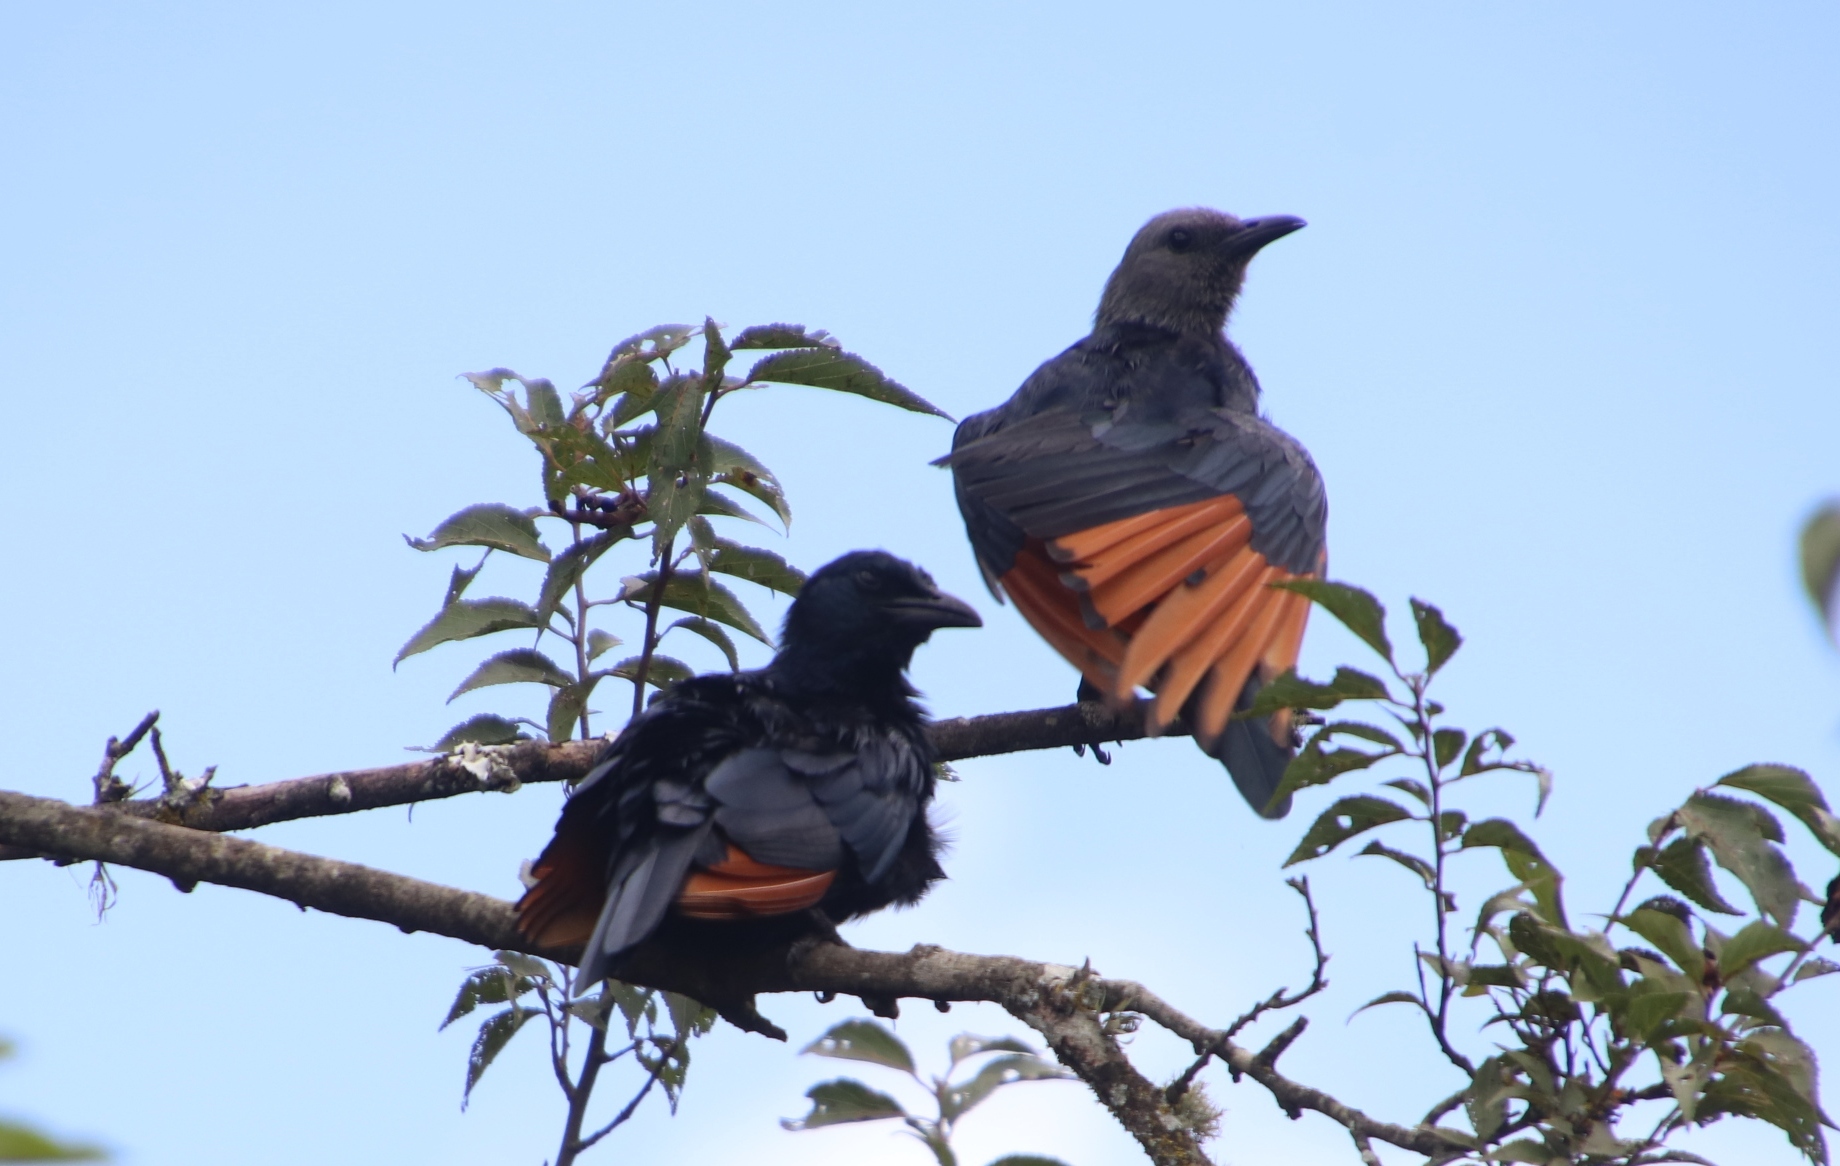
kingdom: Animalia
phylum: Chordata
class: Aves
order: Passeriformes
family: Sturnidae
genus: Onychognathus
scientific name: Onychognathus morio
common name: Red-winged starling
